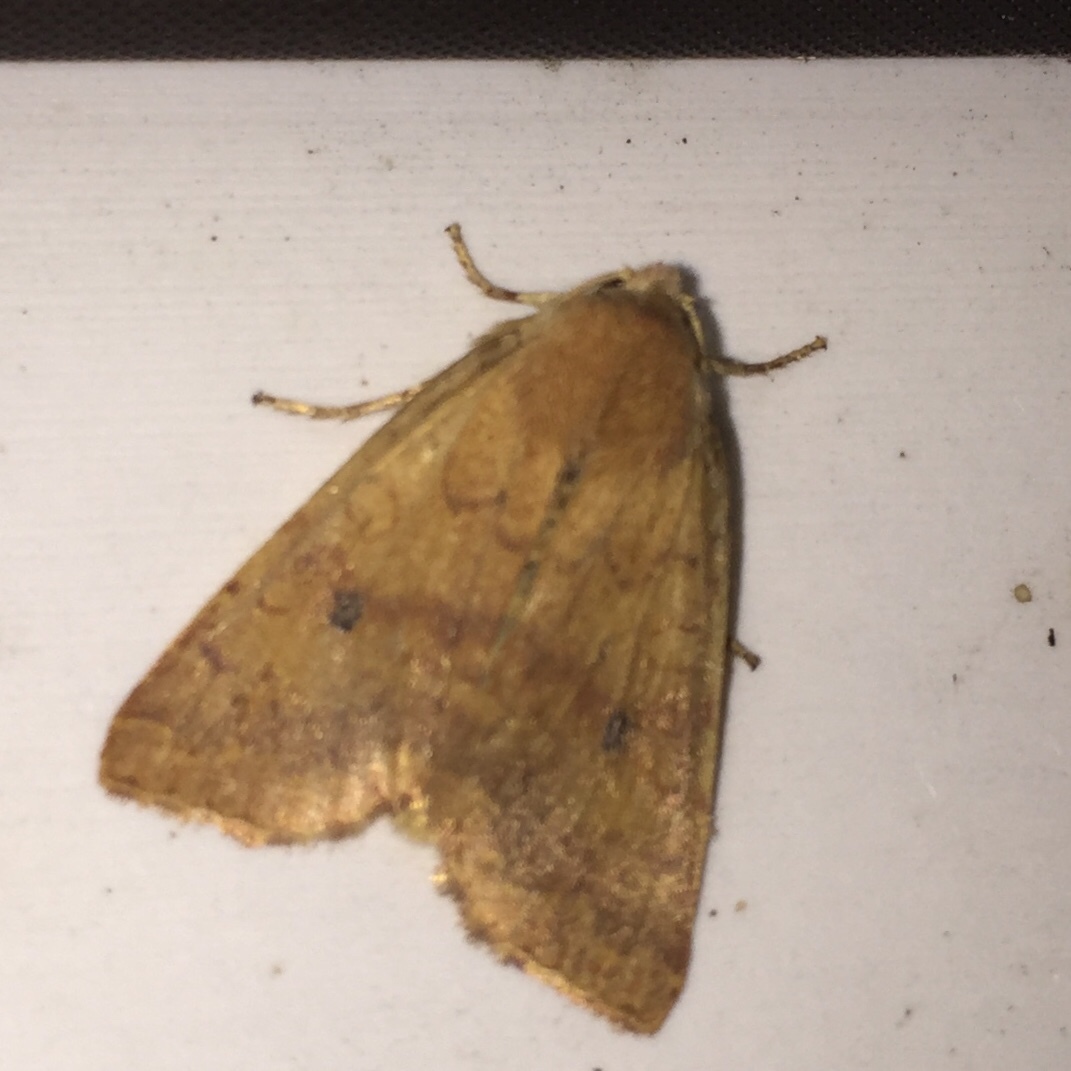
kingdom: Animalia
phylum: Arthropoda
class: Insecta
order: Lepidoptera
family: Noctuidae
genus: Agrochola
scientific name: Agrochola bicolorago
